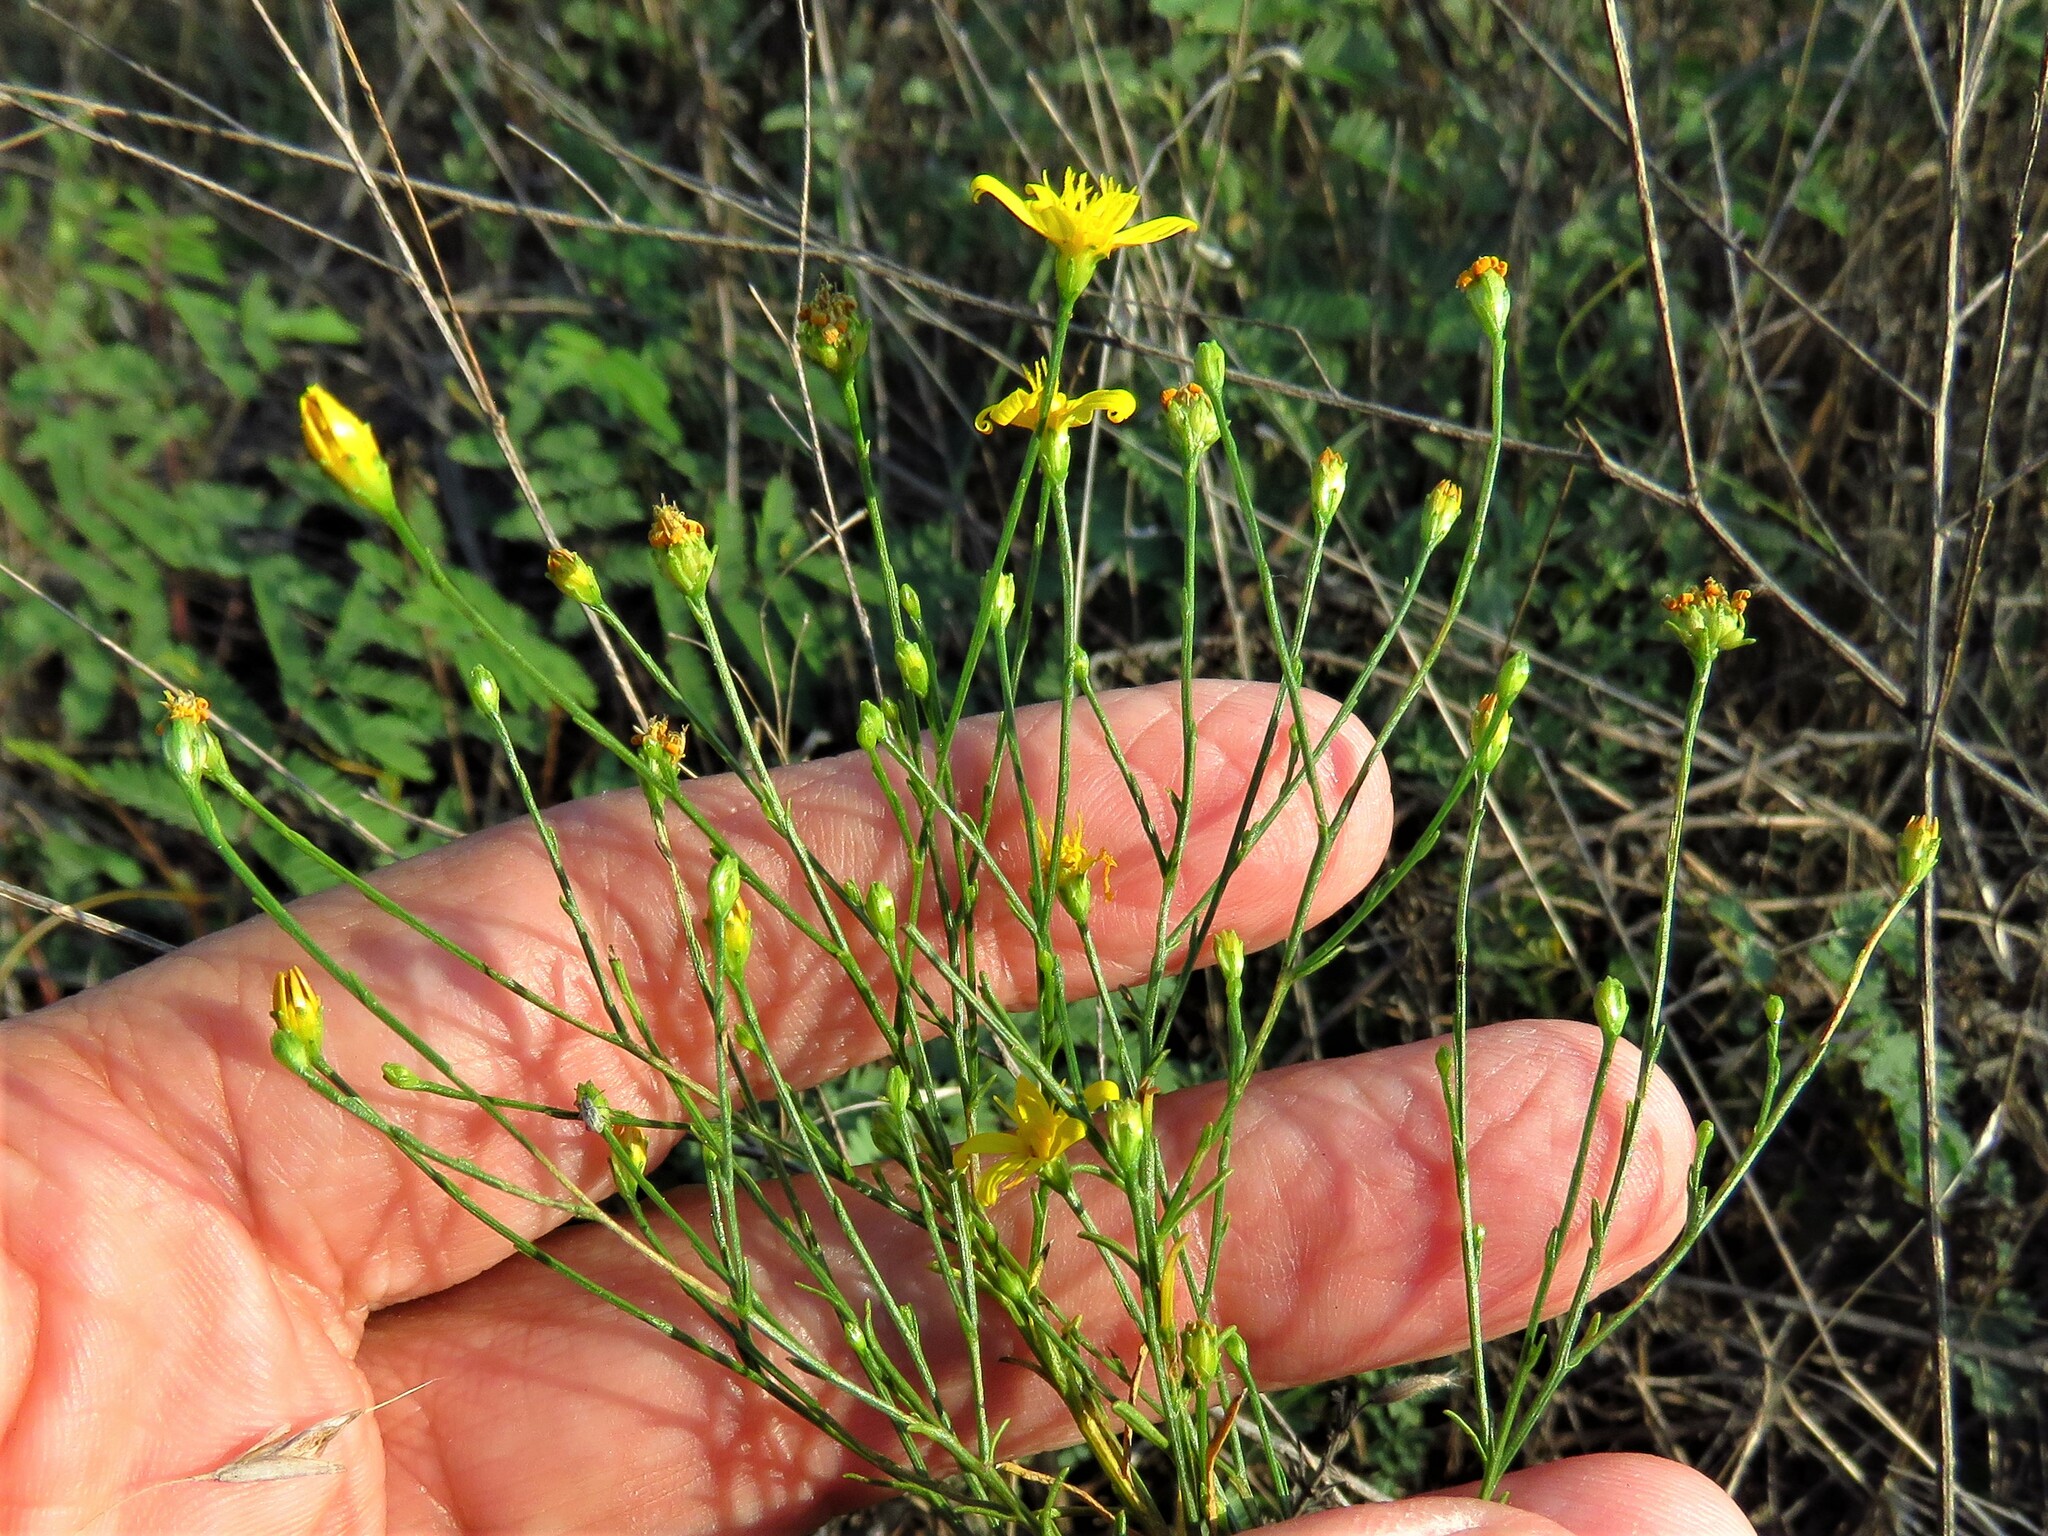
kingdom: Plantae
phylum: Tracheophyta
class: Magnoliopsida
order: Asterales
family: Asteraceae
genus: Gutierrezia
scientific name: Gutierrezia texana
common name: Texas snakeweed
